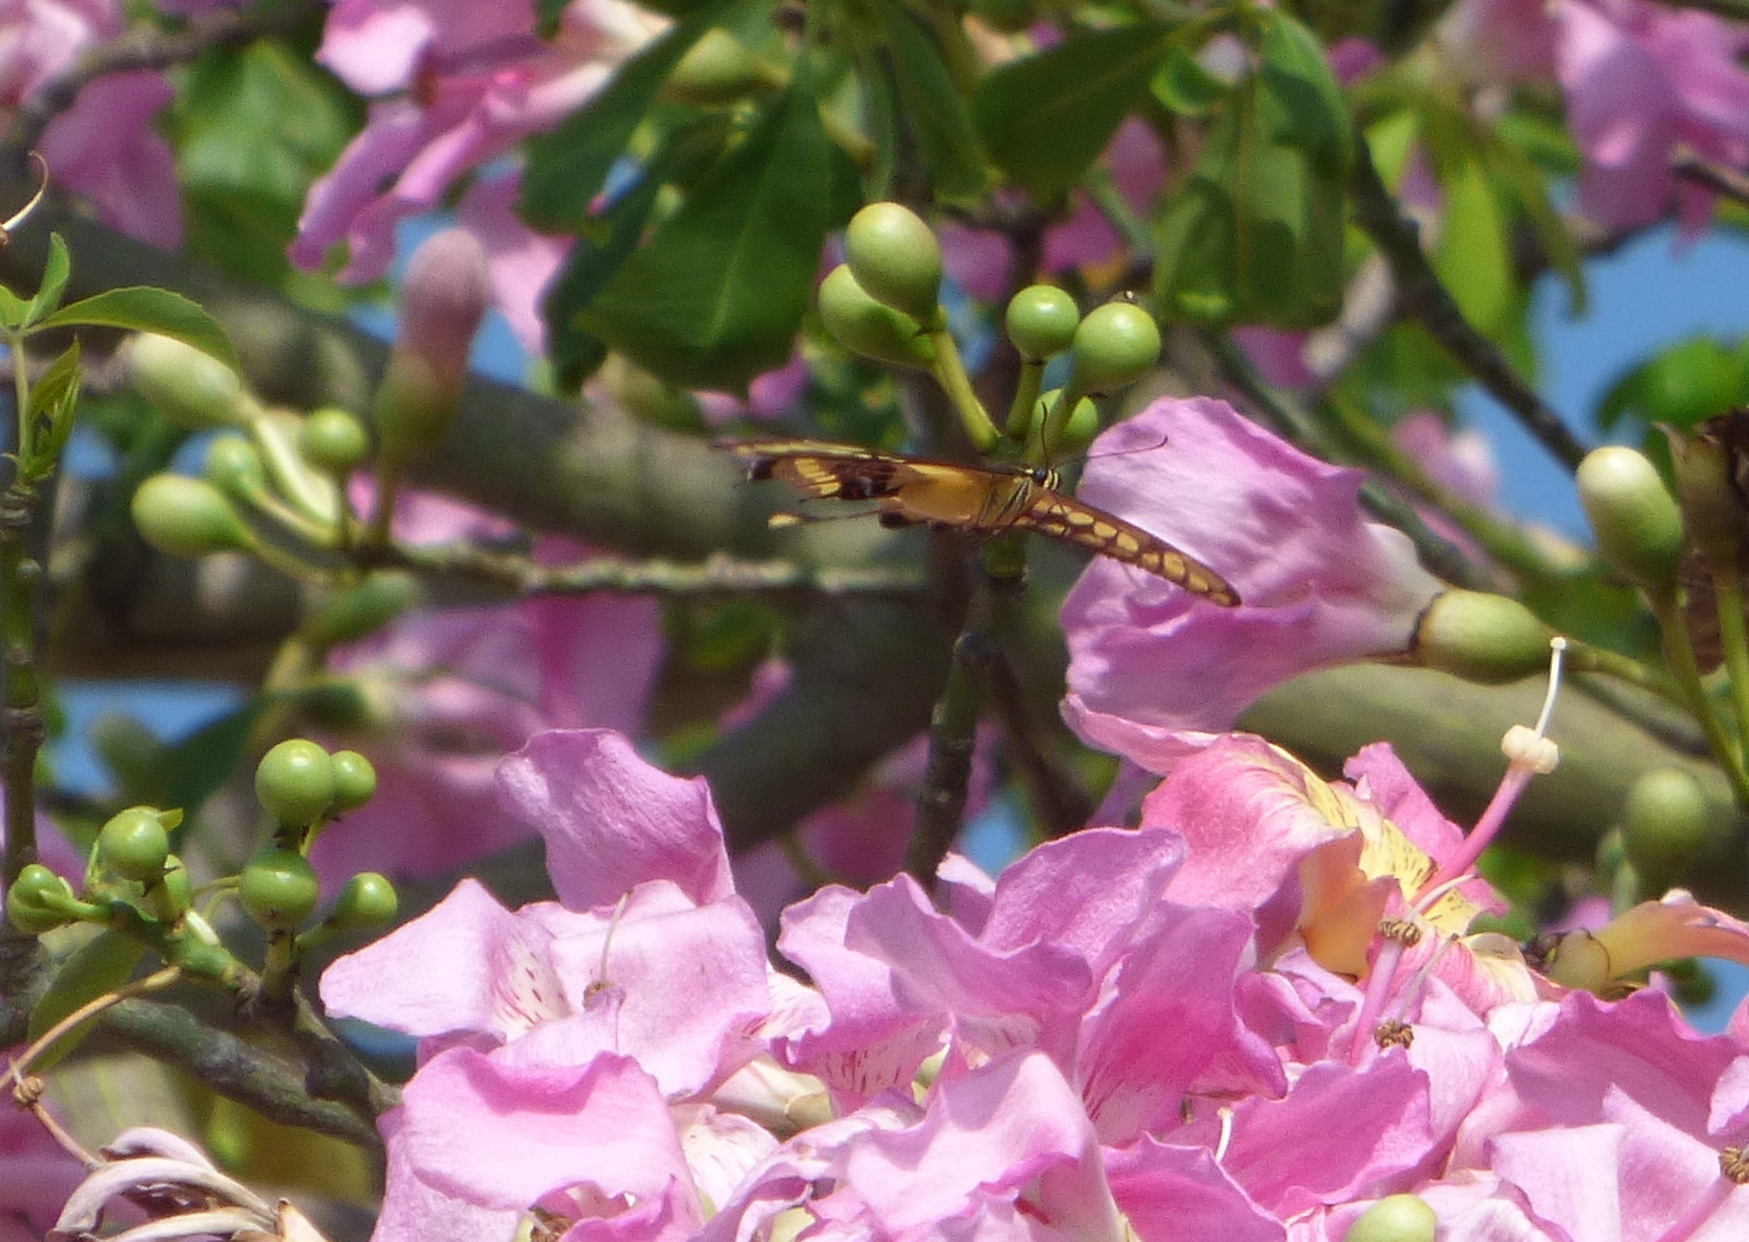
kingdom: Animalia
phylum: Arthropoda
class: Insecta
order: Lepidoptera
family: Papilionidae
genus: Papilio
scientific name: Papilio thoas
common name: King swallowtail
